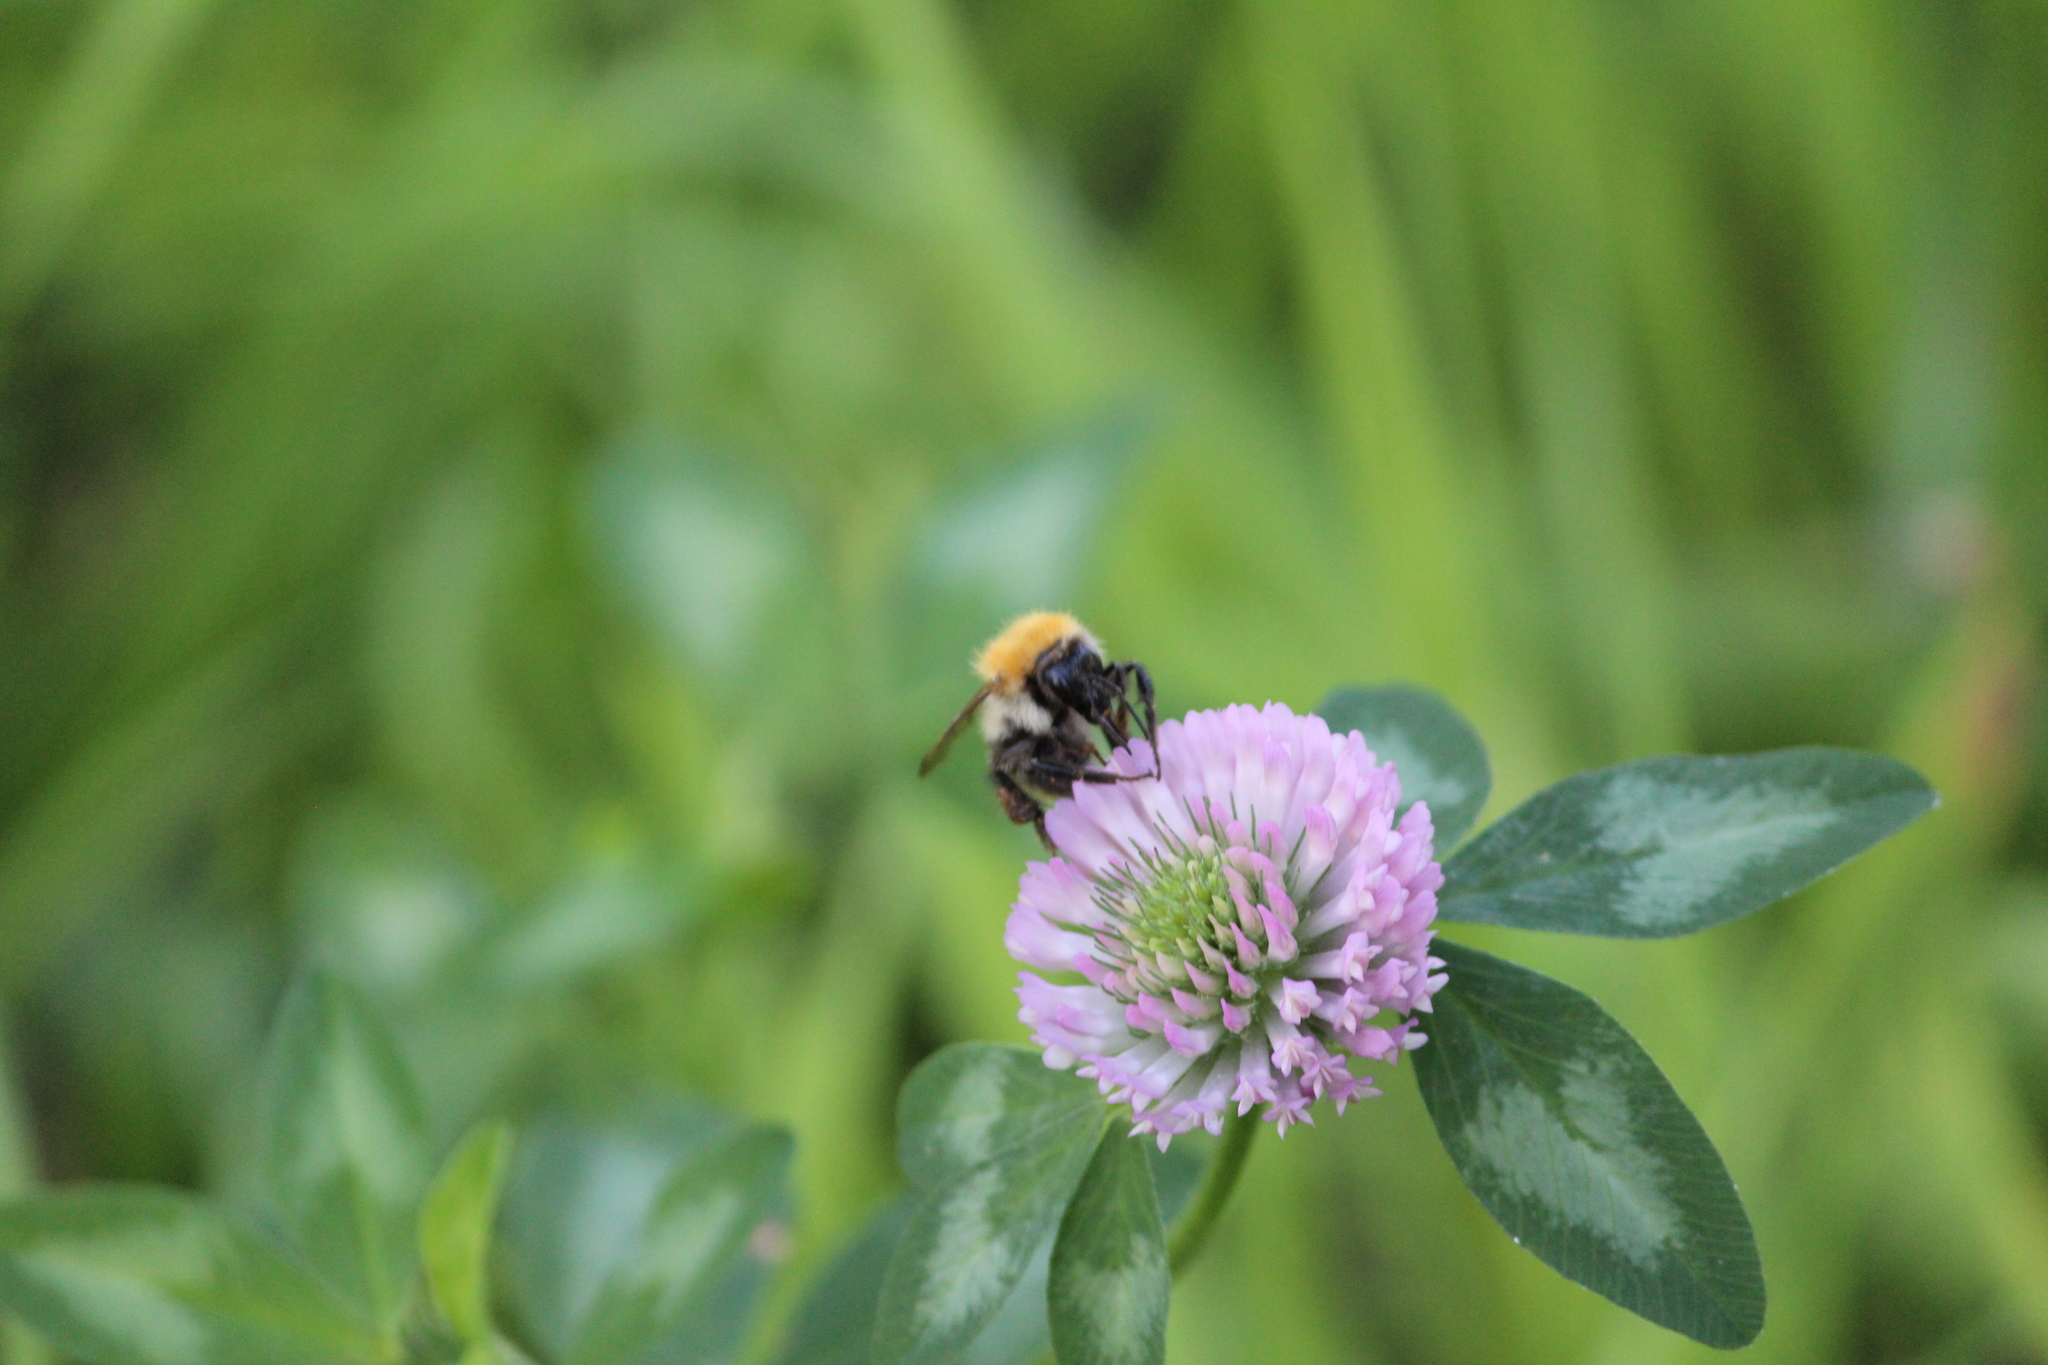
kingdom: Animalia
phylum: Arthropoda
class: Insecta
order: Hymenoptera
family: Apidae
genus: Bombus
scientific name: Bombus pascuorum
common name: Common carder bee
